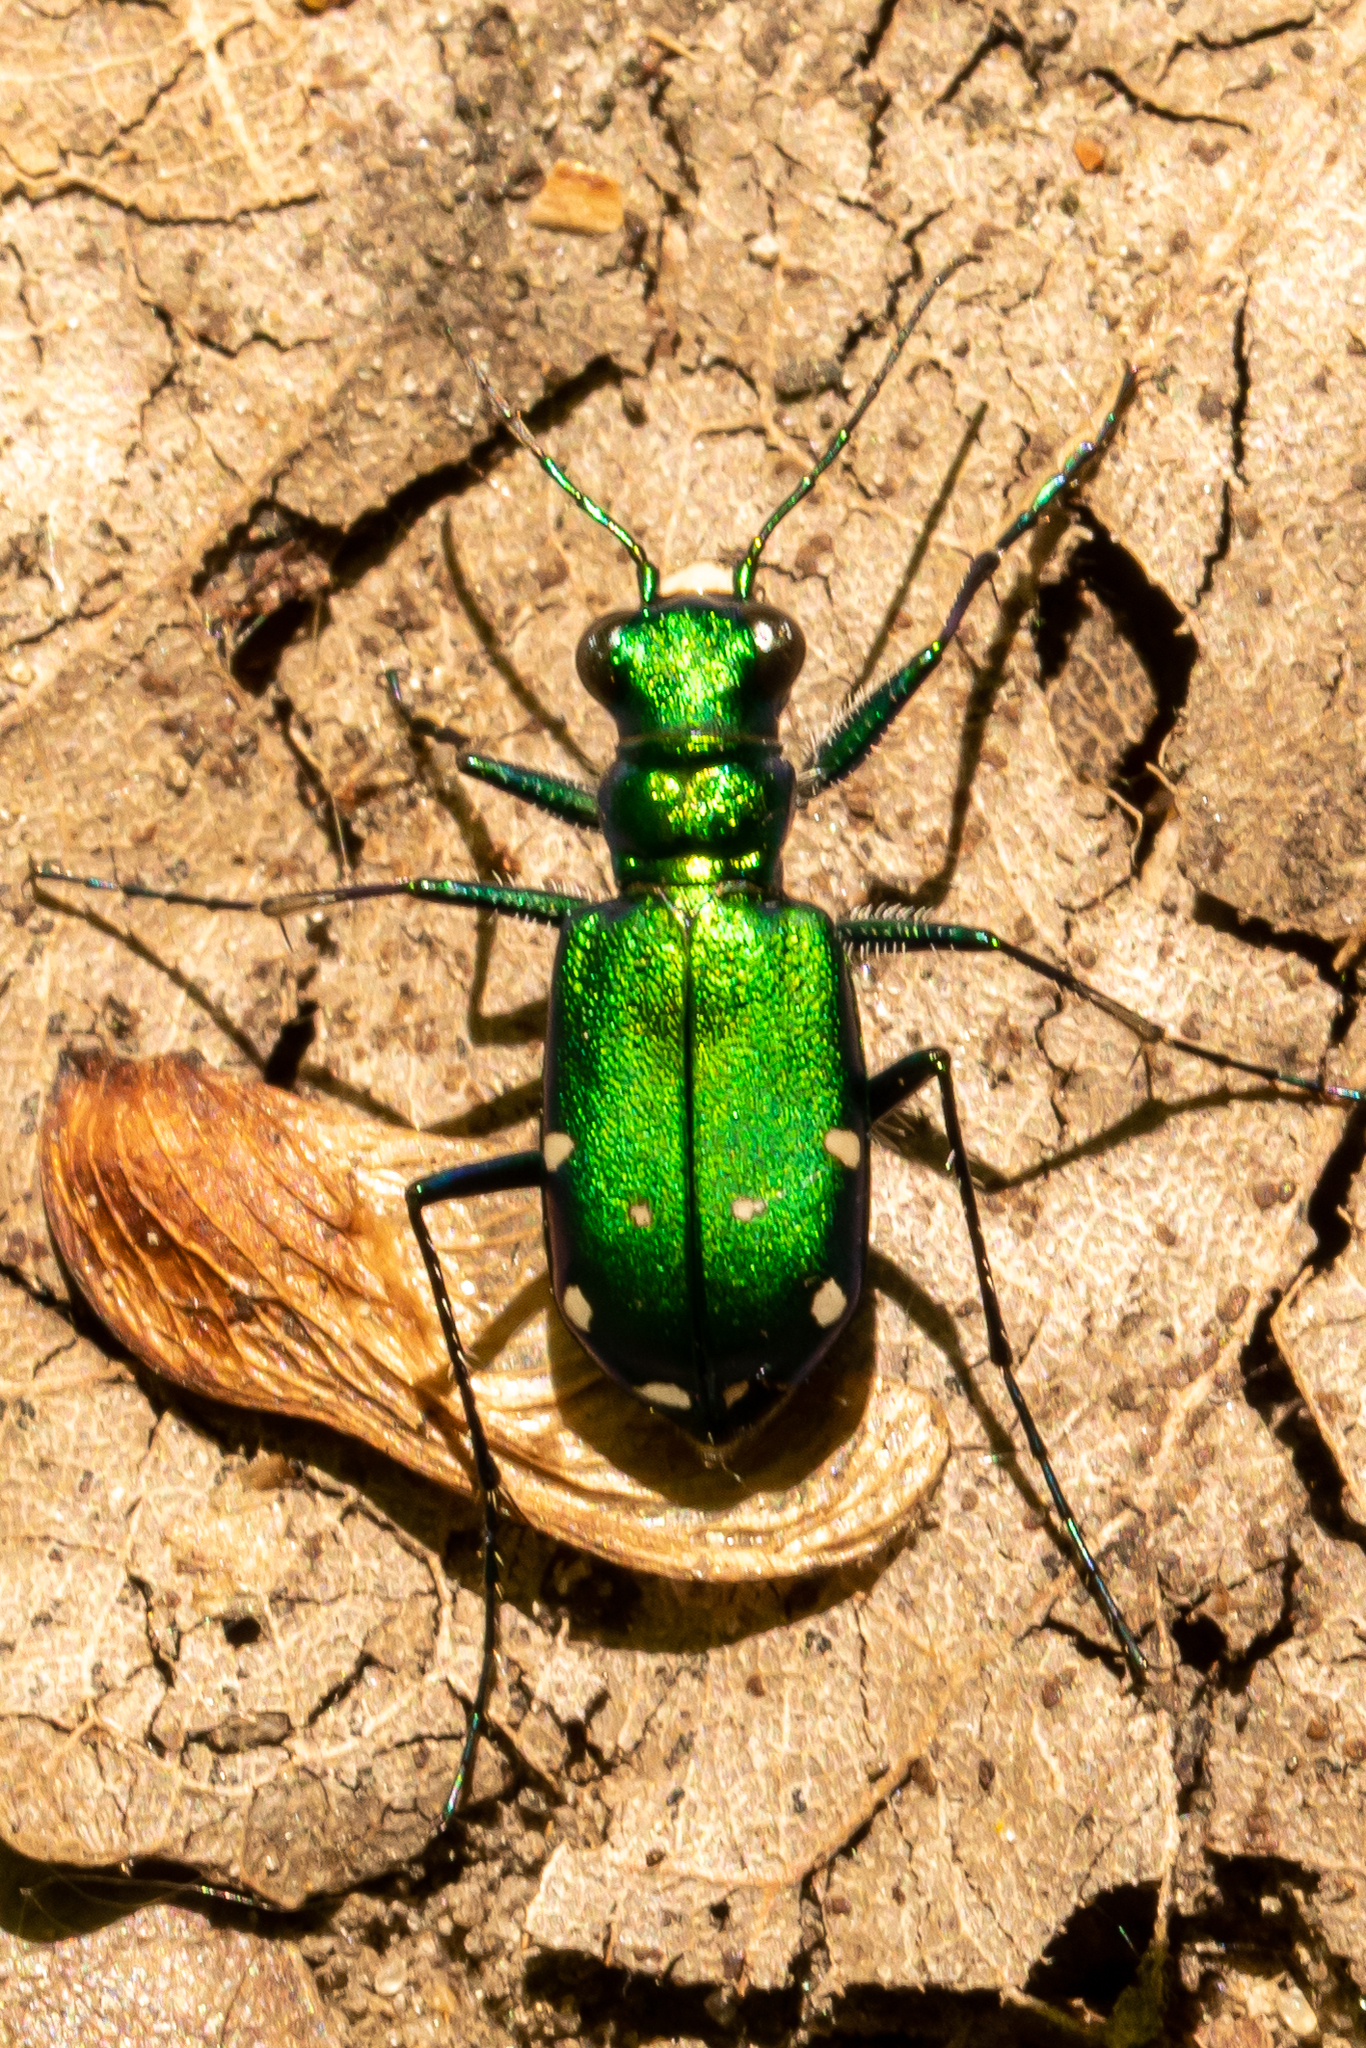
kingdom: Animalia
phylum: Arthropoda
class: Insecta
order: Coleoptera
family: Carabidae
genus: Cicindela
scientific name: Cicindela sexguttata
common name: Six-spotted tiger beetle
